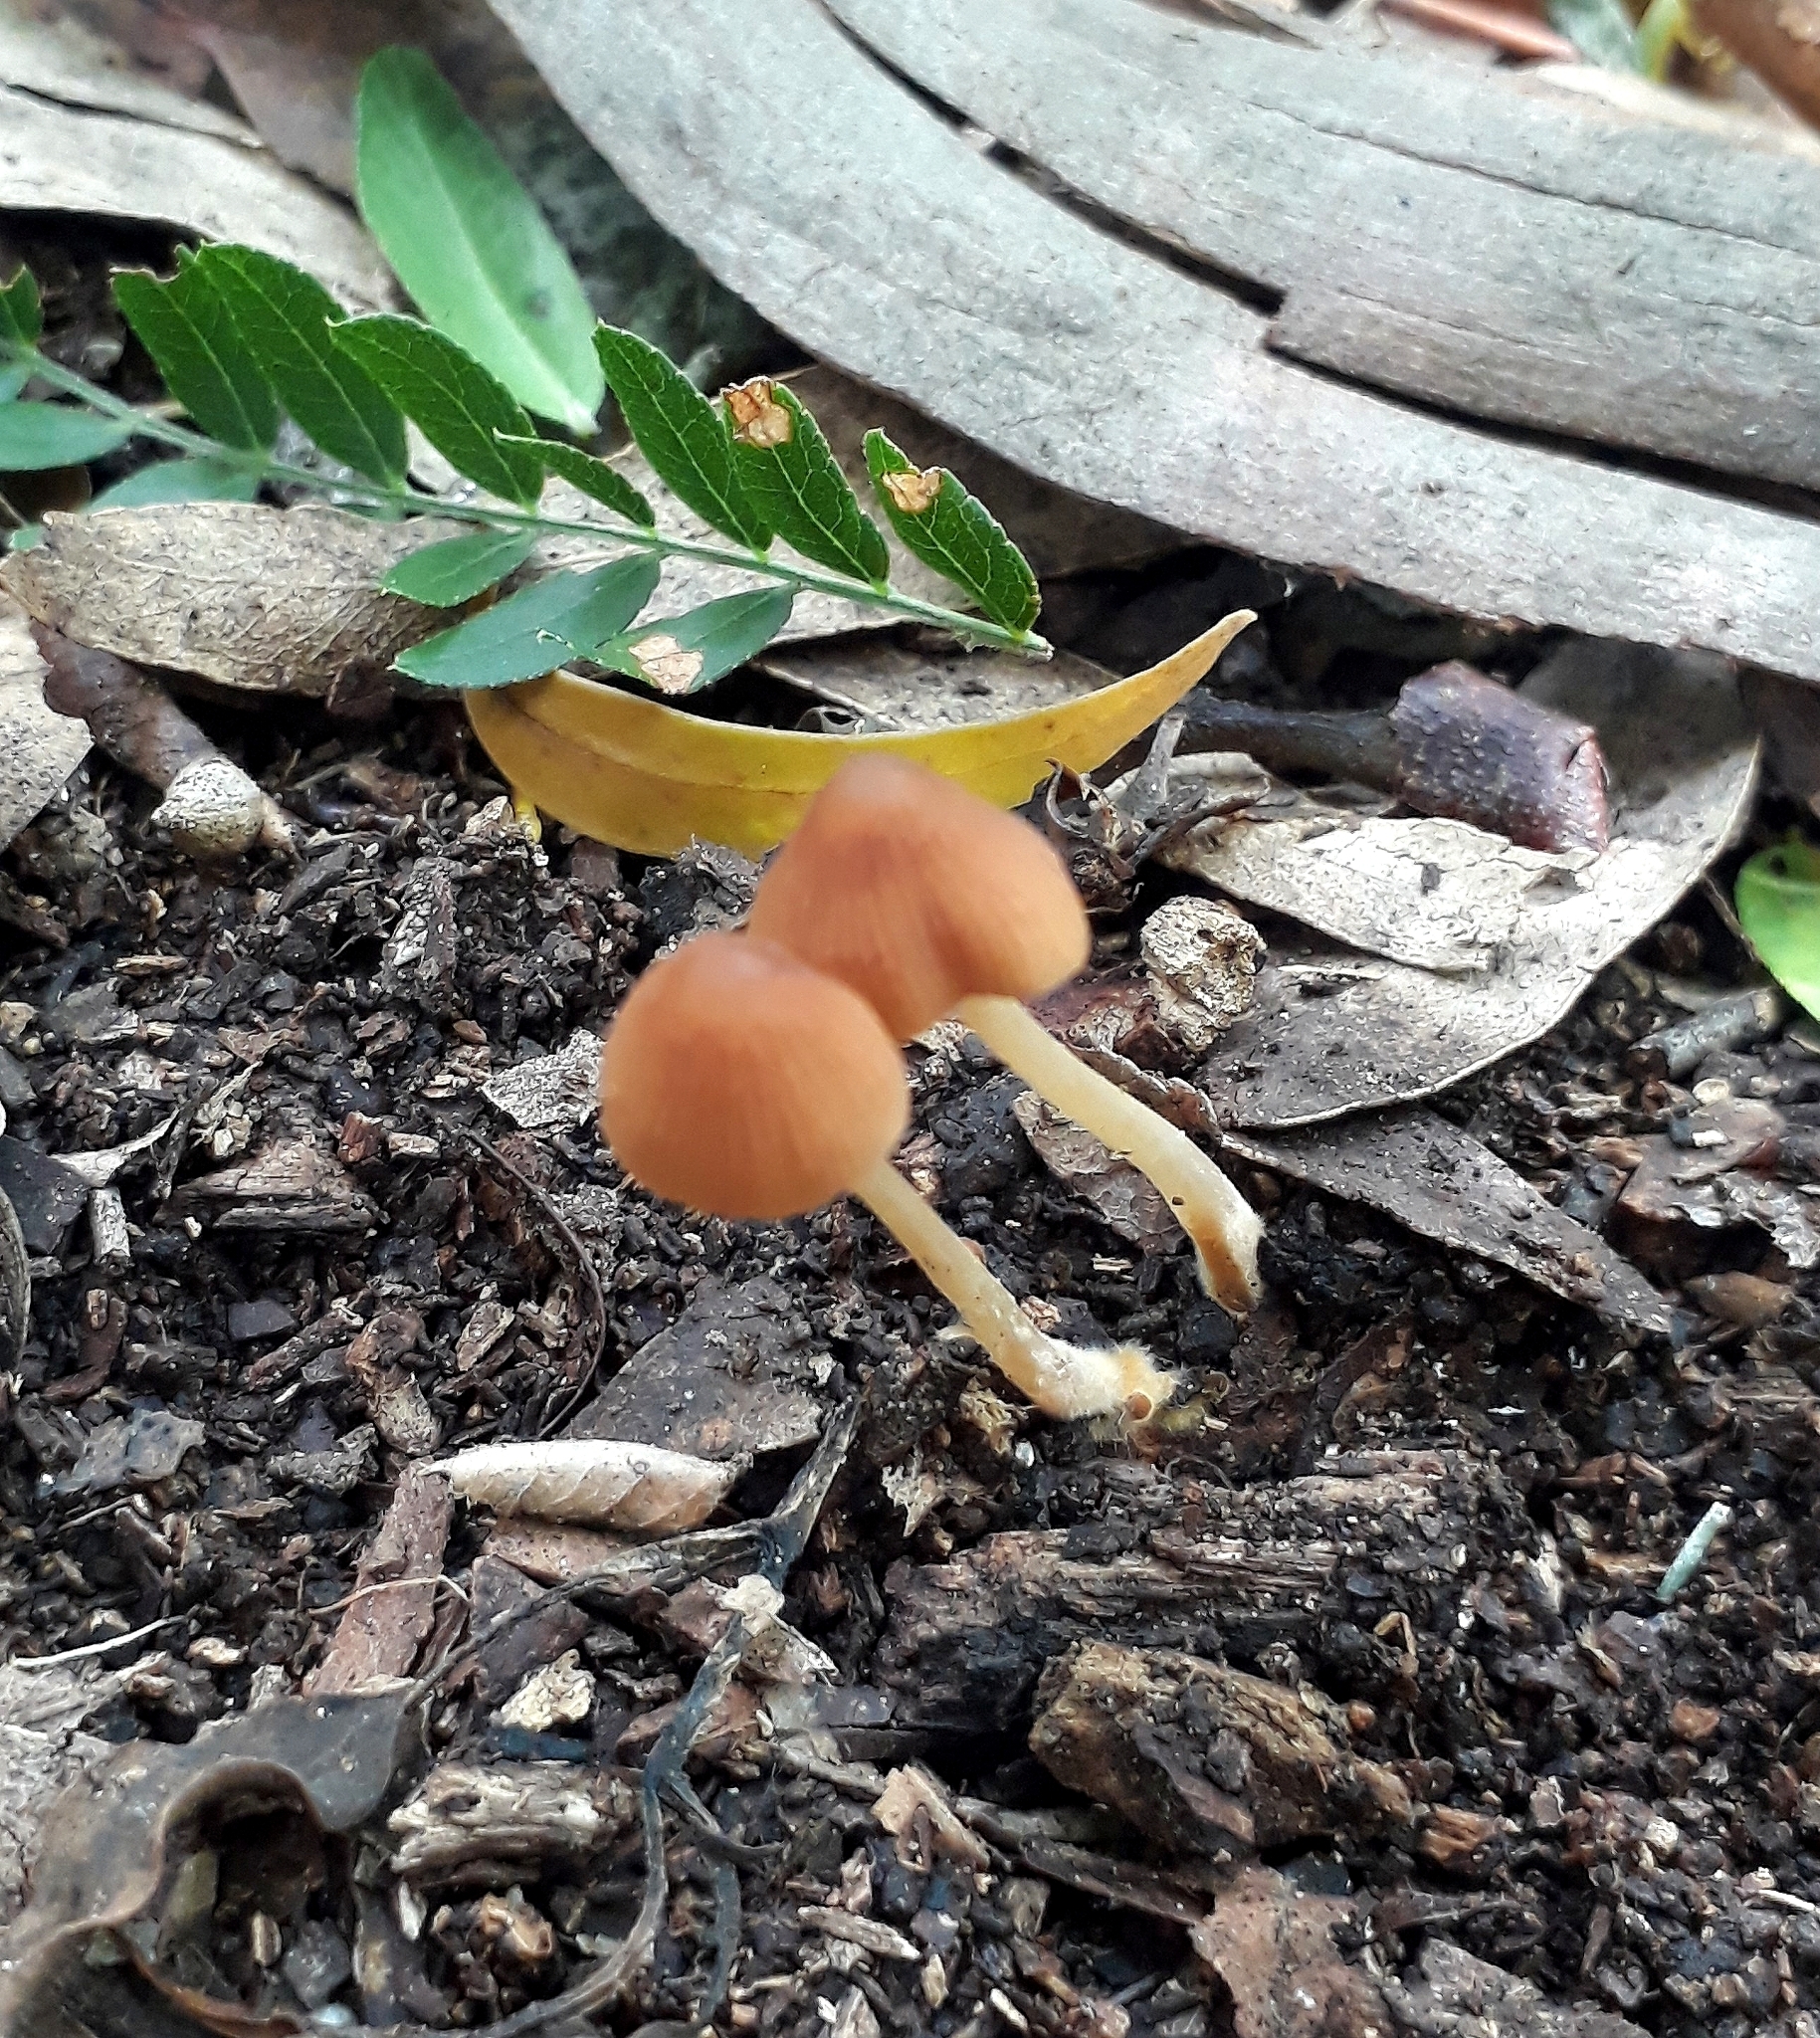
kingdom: Fungi
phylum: Basidiomycota
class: Agaricomycetes
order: Agaricales
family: Marasmiaceae
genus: Marasmius
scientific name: Marasmius elegans
